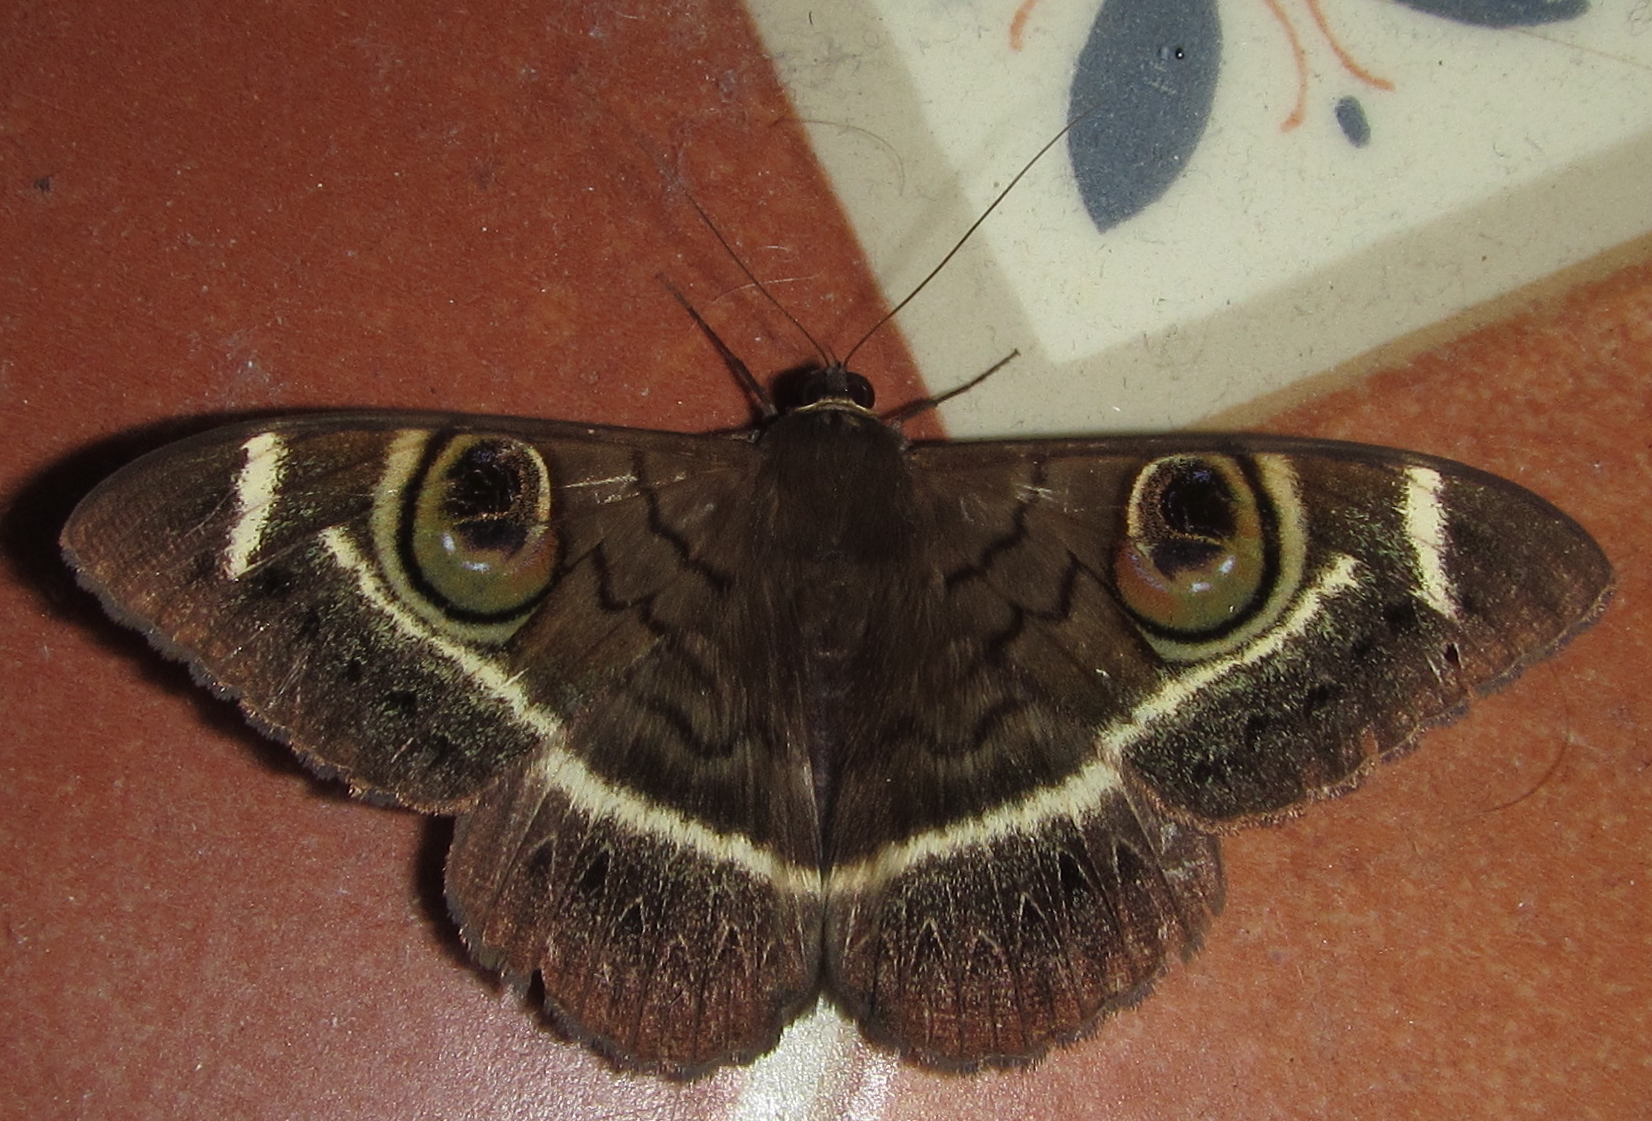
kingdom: Animalia
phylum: Arthropoda
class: Insecta
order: Lepidoptera
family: Erebidae
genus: Cyligramma
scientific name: Cyligramma latona
